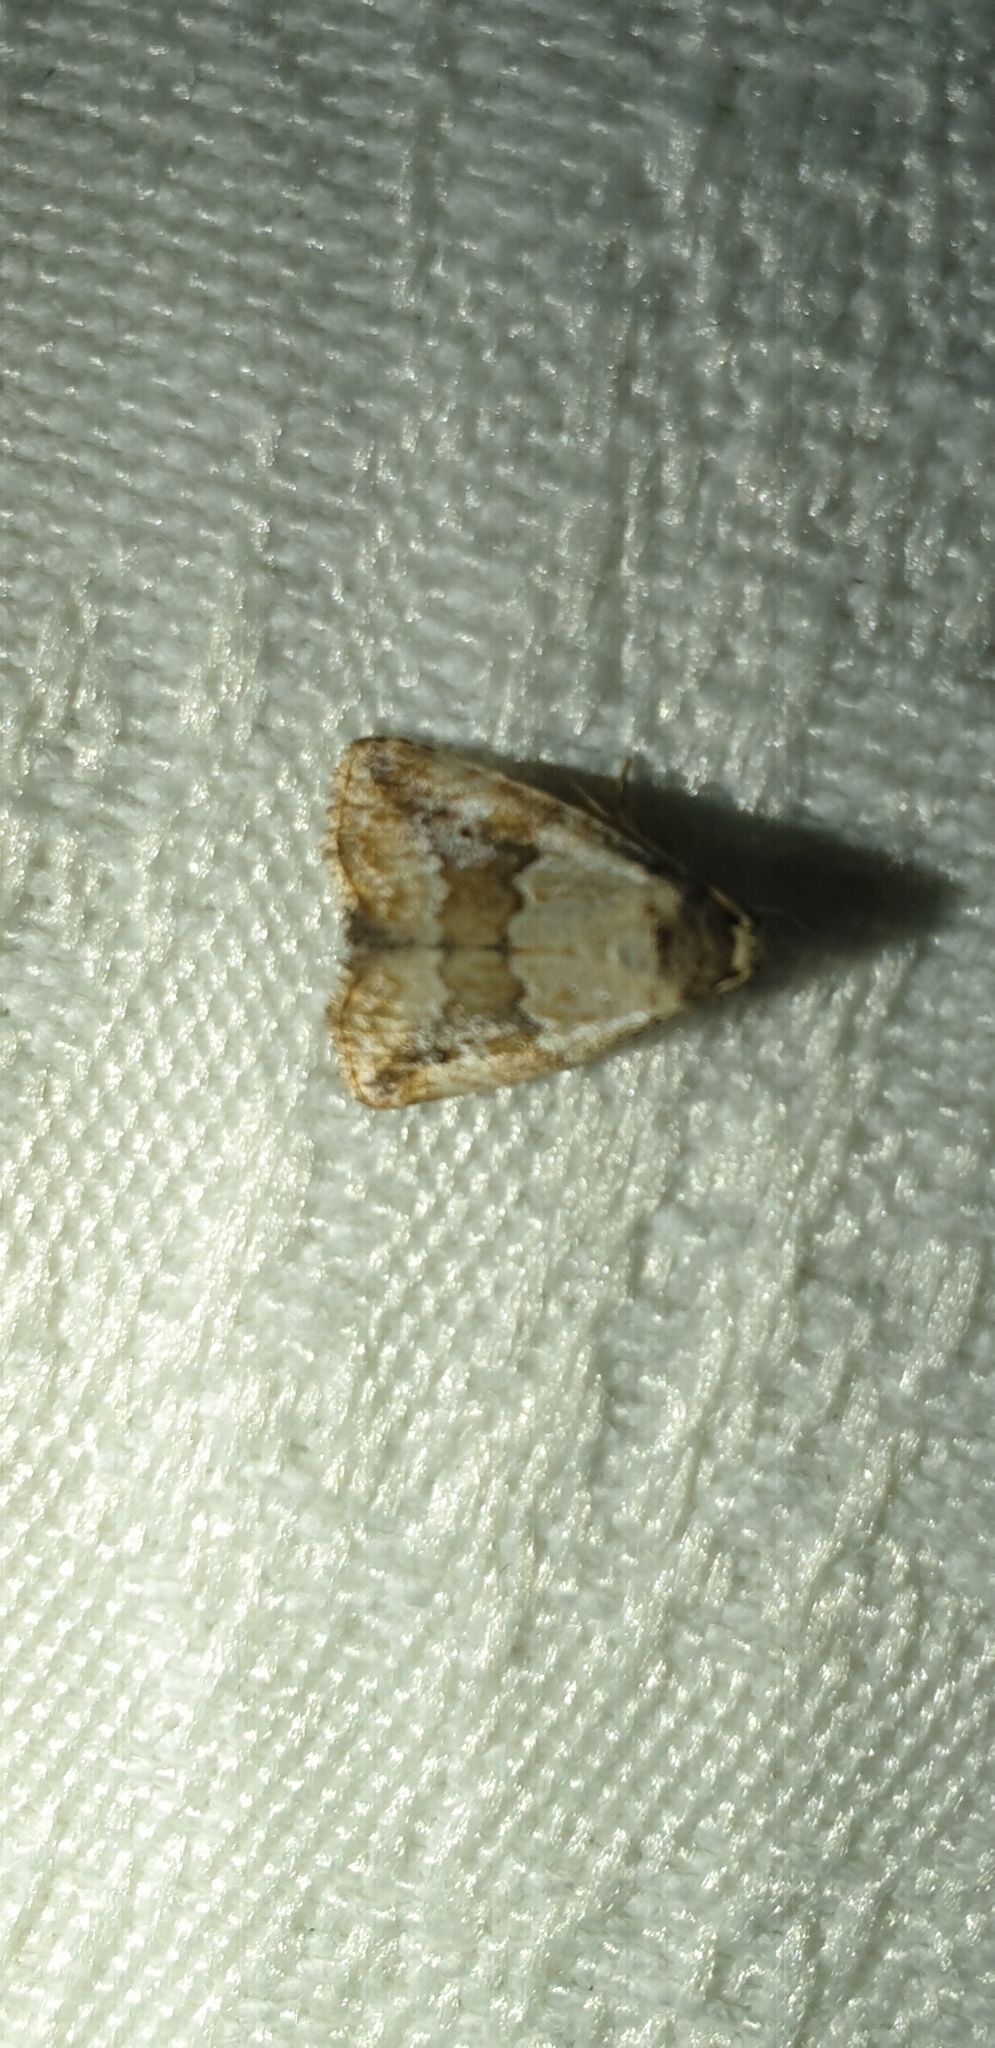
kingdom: Animalia
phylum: Arthropoda
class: Insecta
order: Lepidoptera
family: Noctuidae
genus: Maliattha
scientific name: Maliattha amorpha
